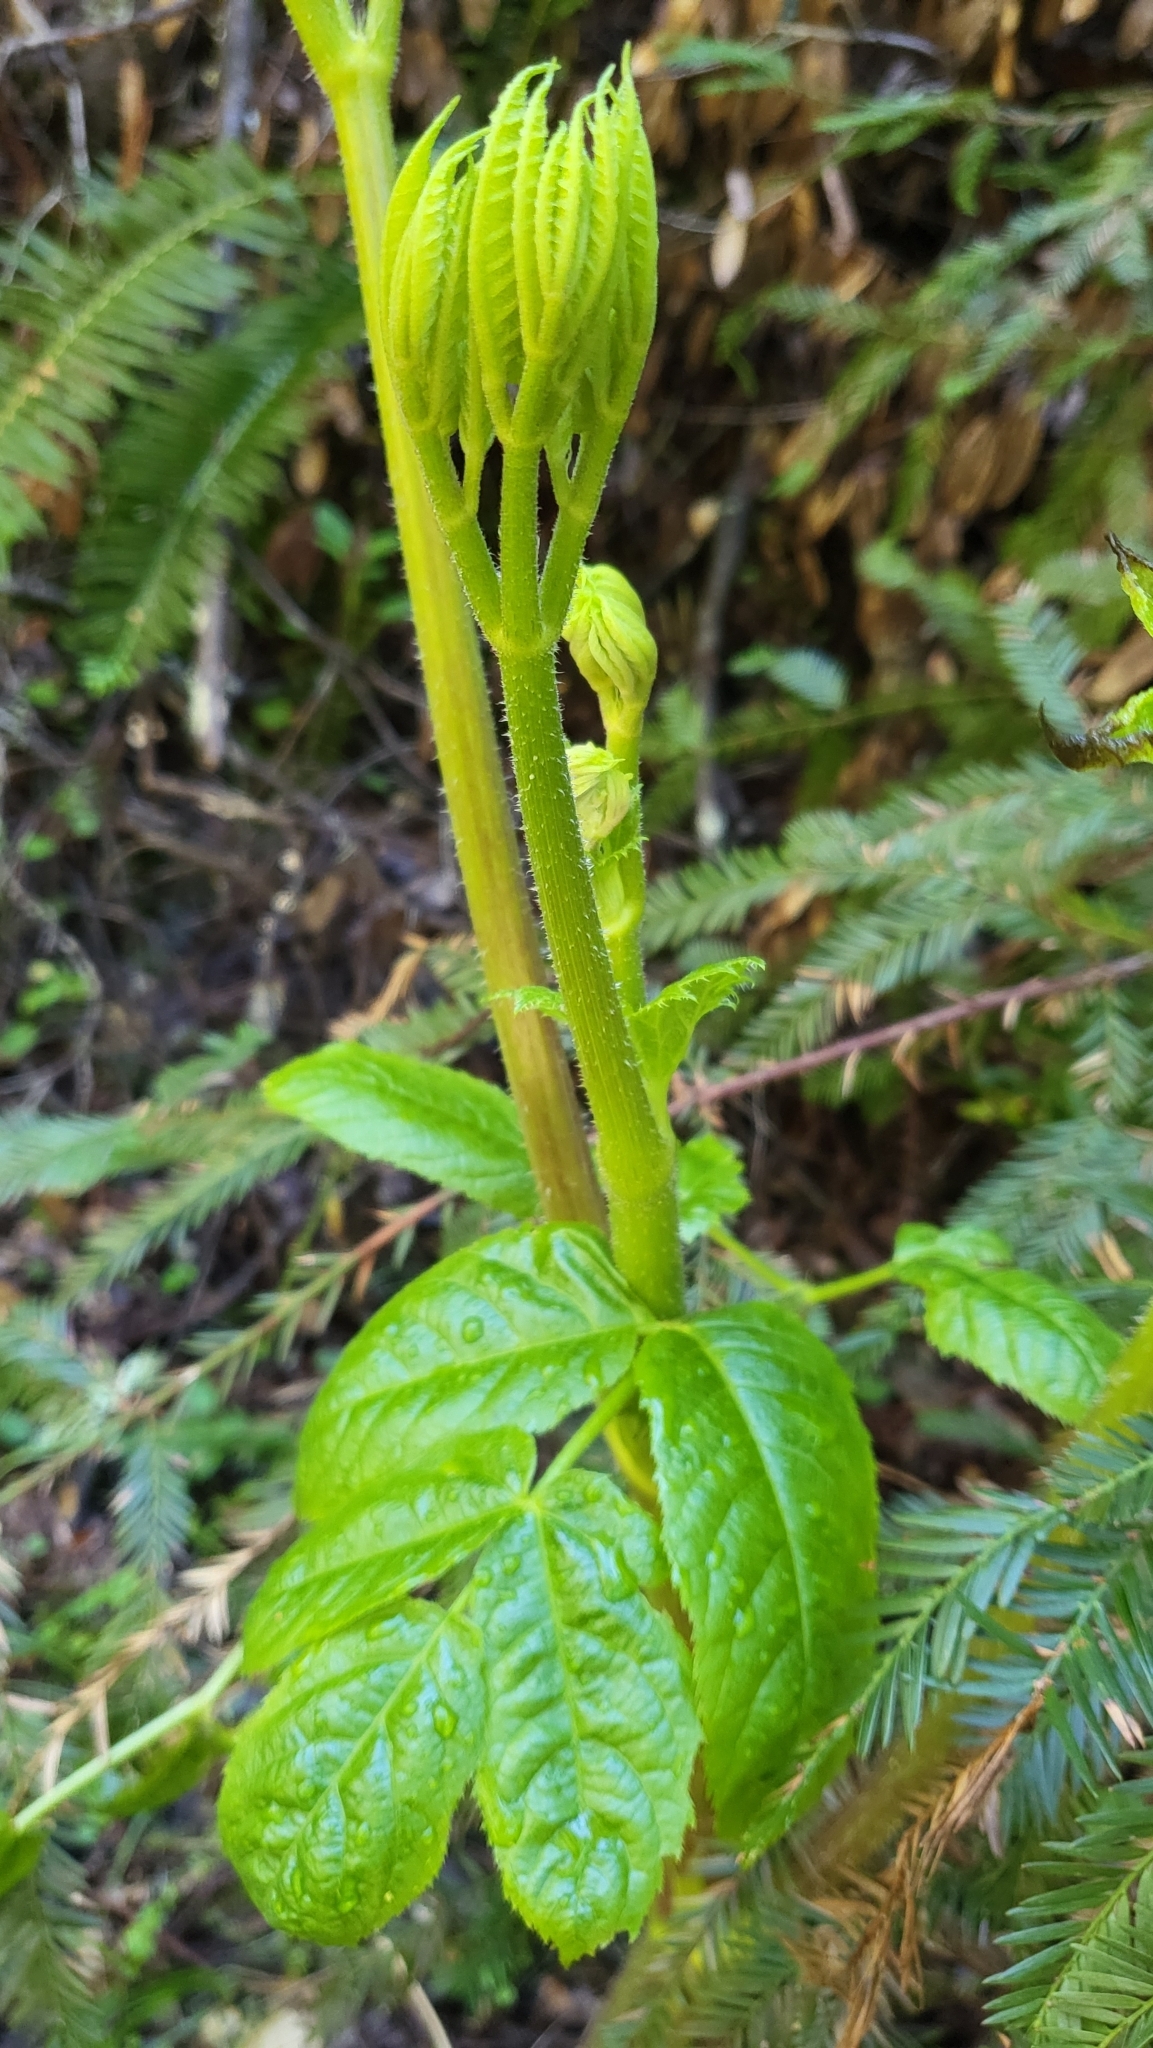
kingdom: Plantae
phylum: Tracheophyta
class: Magnoliopsida
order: Apiales
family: Araliaceae
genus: Aralia
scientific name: Aralia californica
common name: California-ginseng
